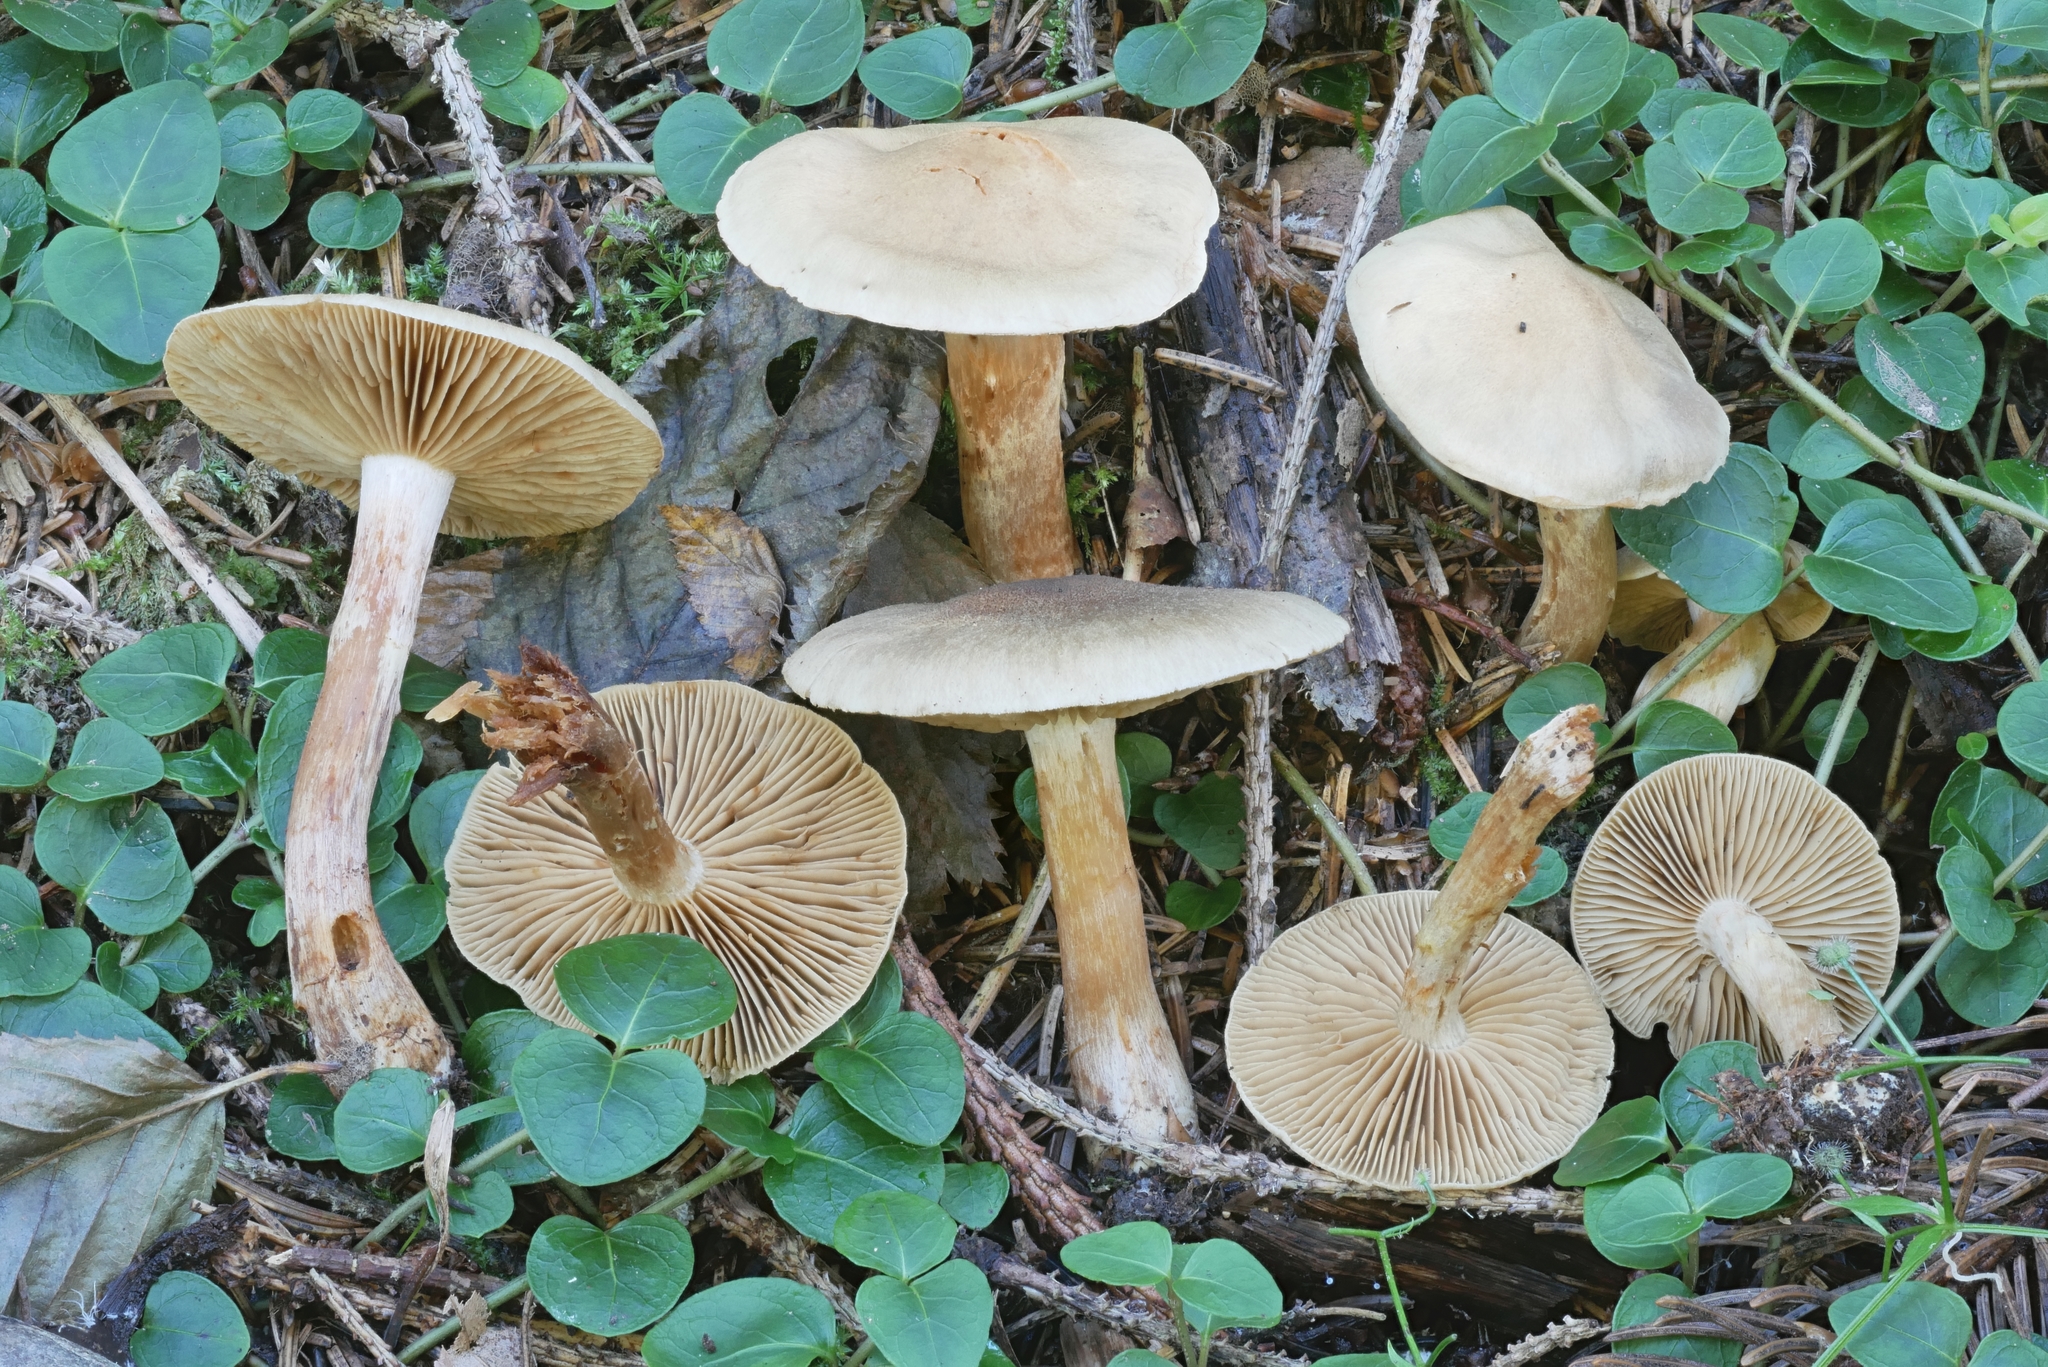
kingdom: Fungi
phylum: Basidiomycota
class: Agaricomycetes
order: Agaricales
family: Cortinariaceae
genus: Cortinarius
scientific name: Cortinarius veneto-occidentalis
